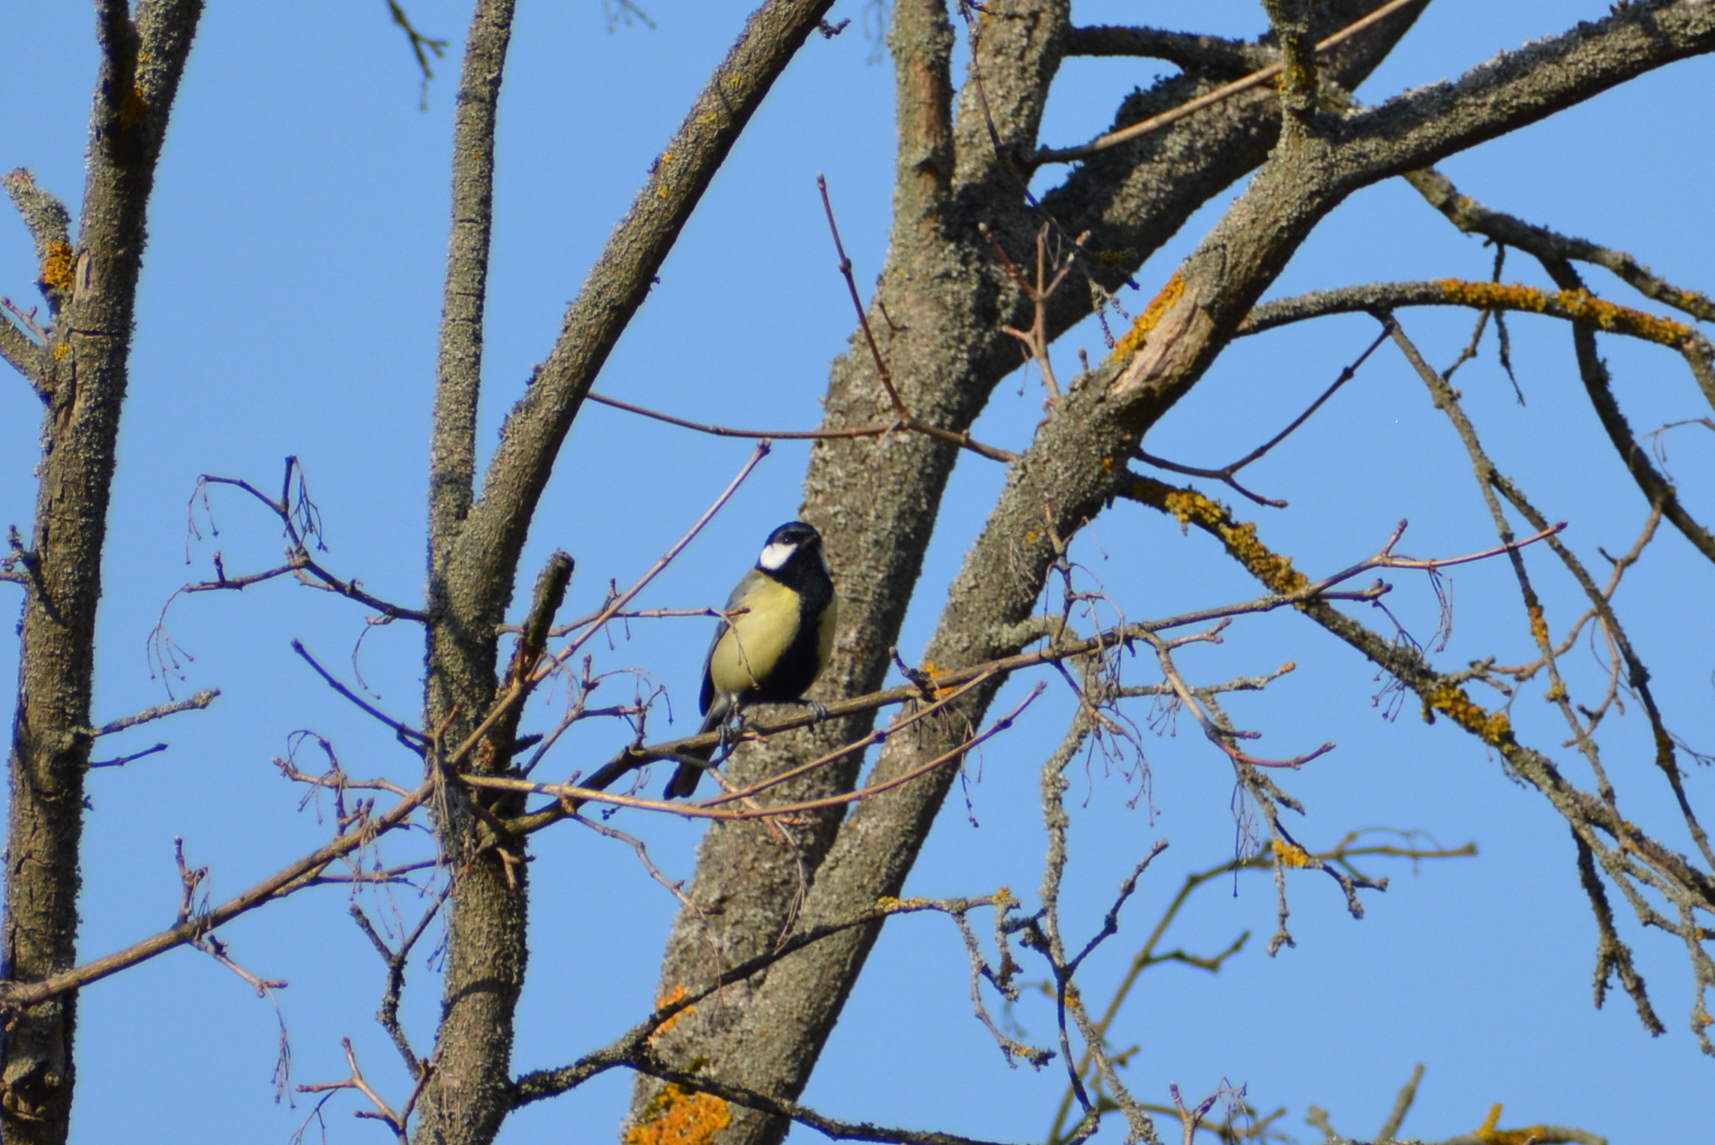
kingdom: Animalia
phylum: Chordata
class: Aves
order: Passeriformes
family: Paridae
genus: Parus
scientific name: Parus major
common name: Great tit
